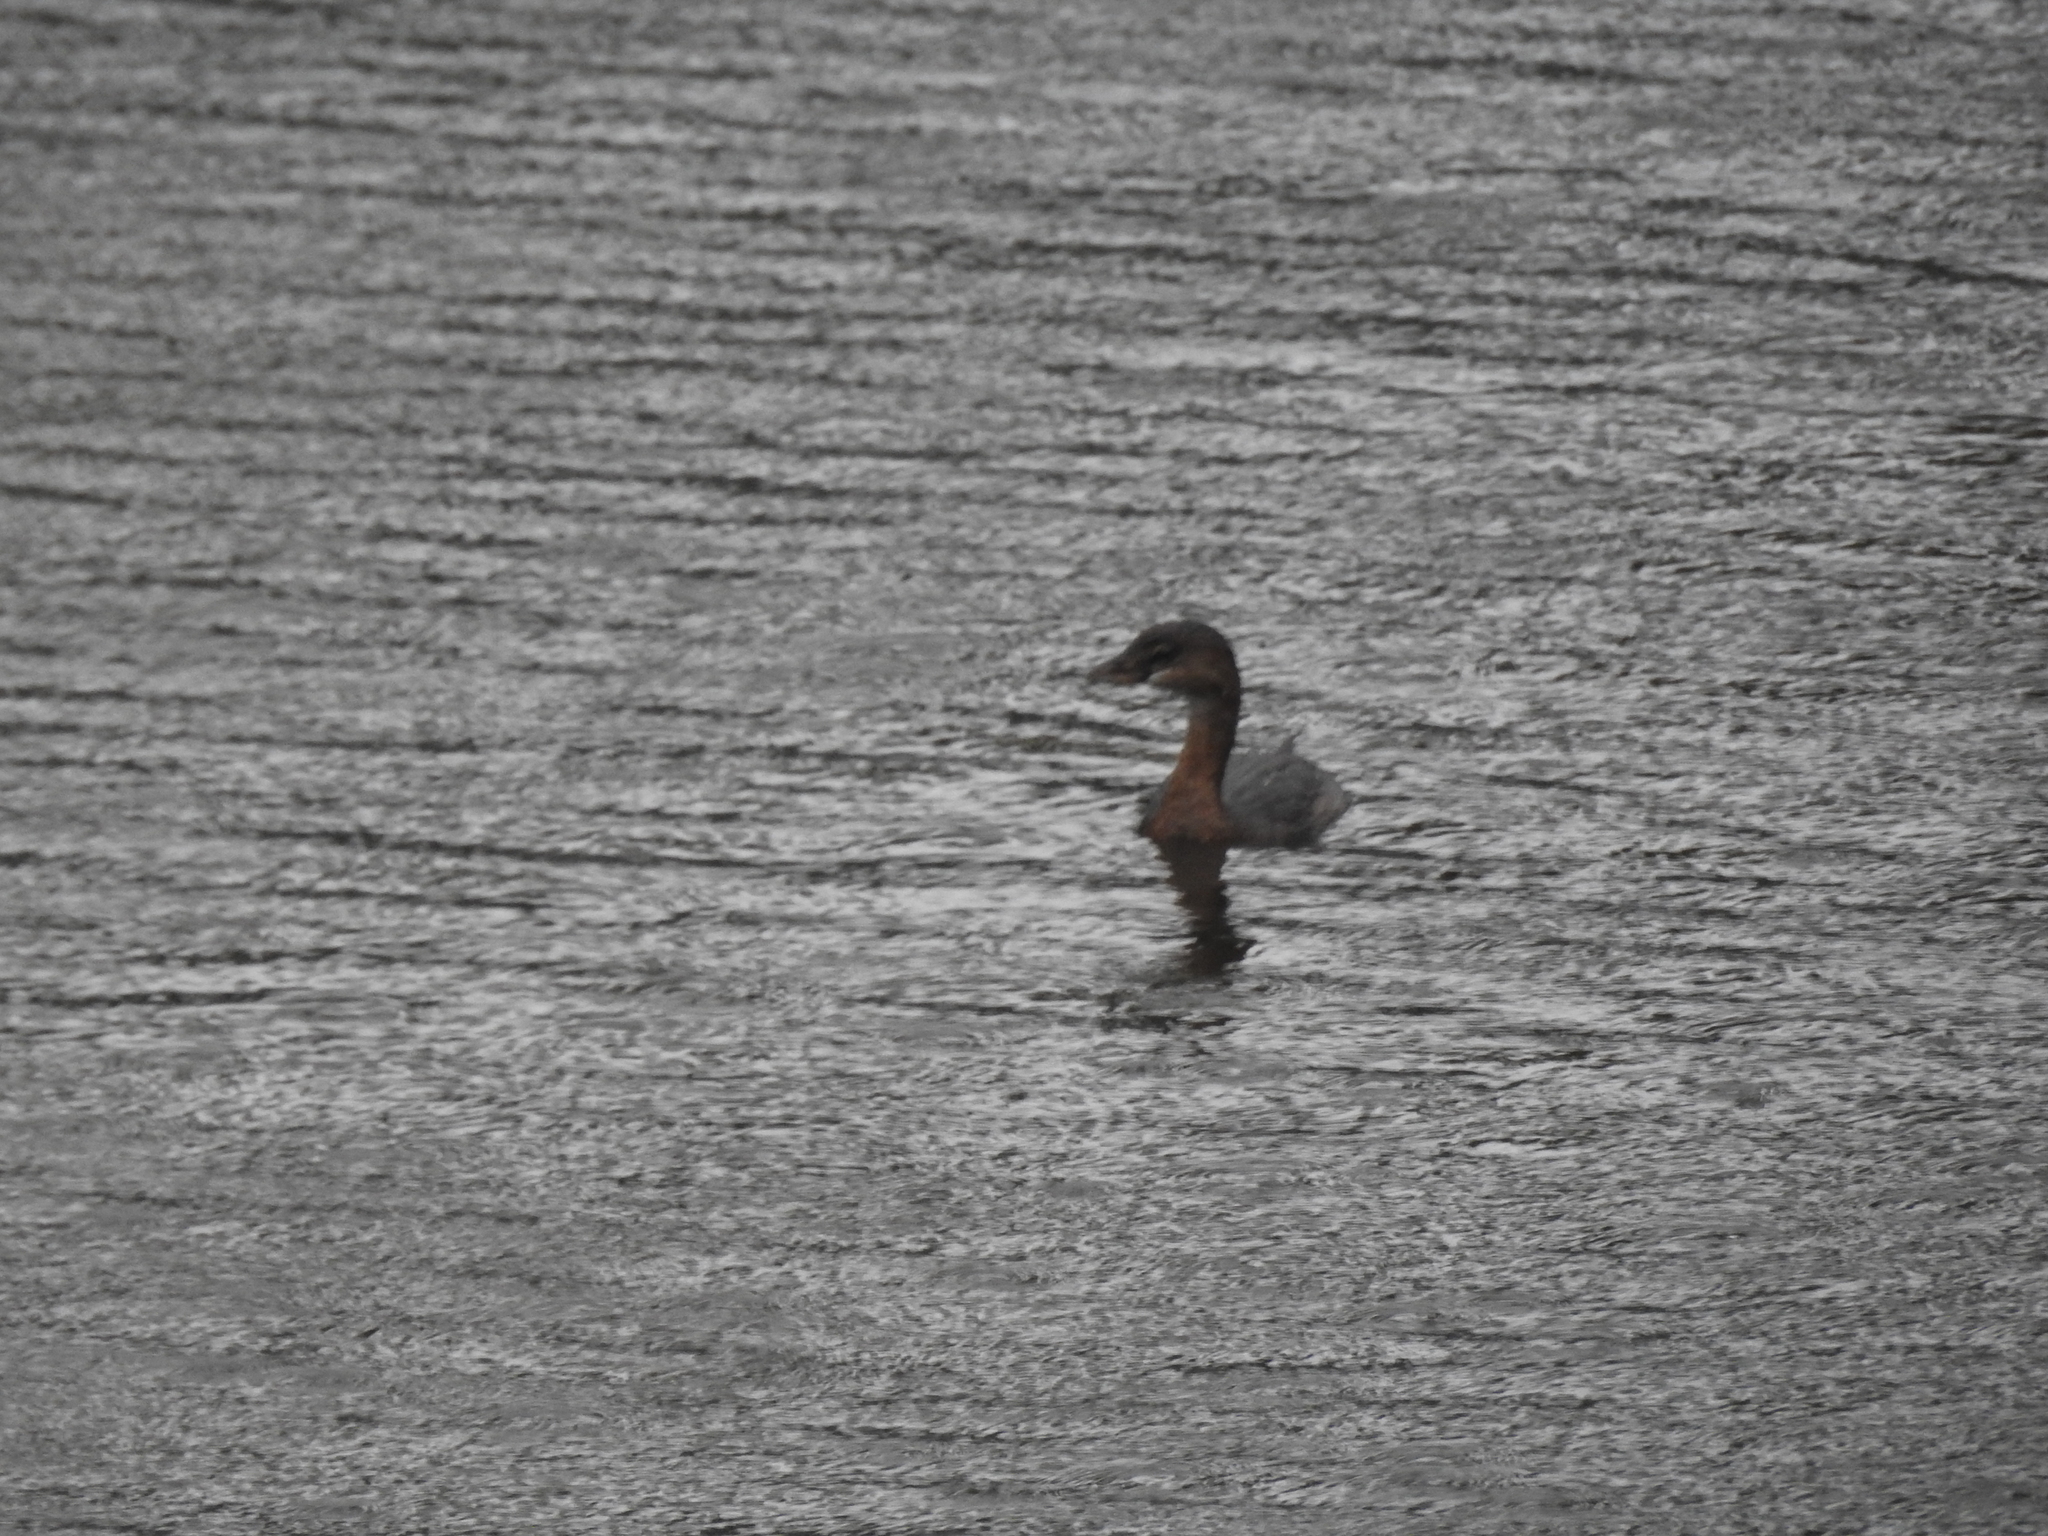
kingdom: Animalia
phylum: Chordata
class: Aves
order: Podicipediformes
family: Podicipedidae
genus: Podilymbus
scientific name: Podilymbus podiceps
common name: Pied-billed grebe
